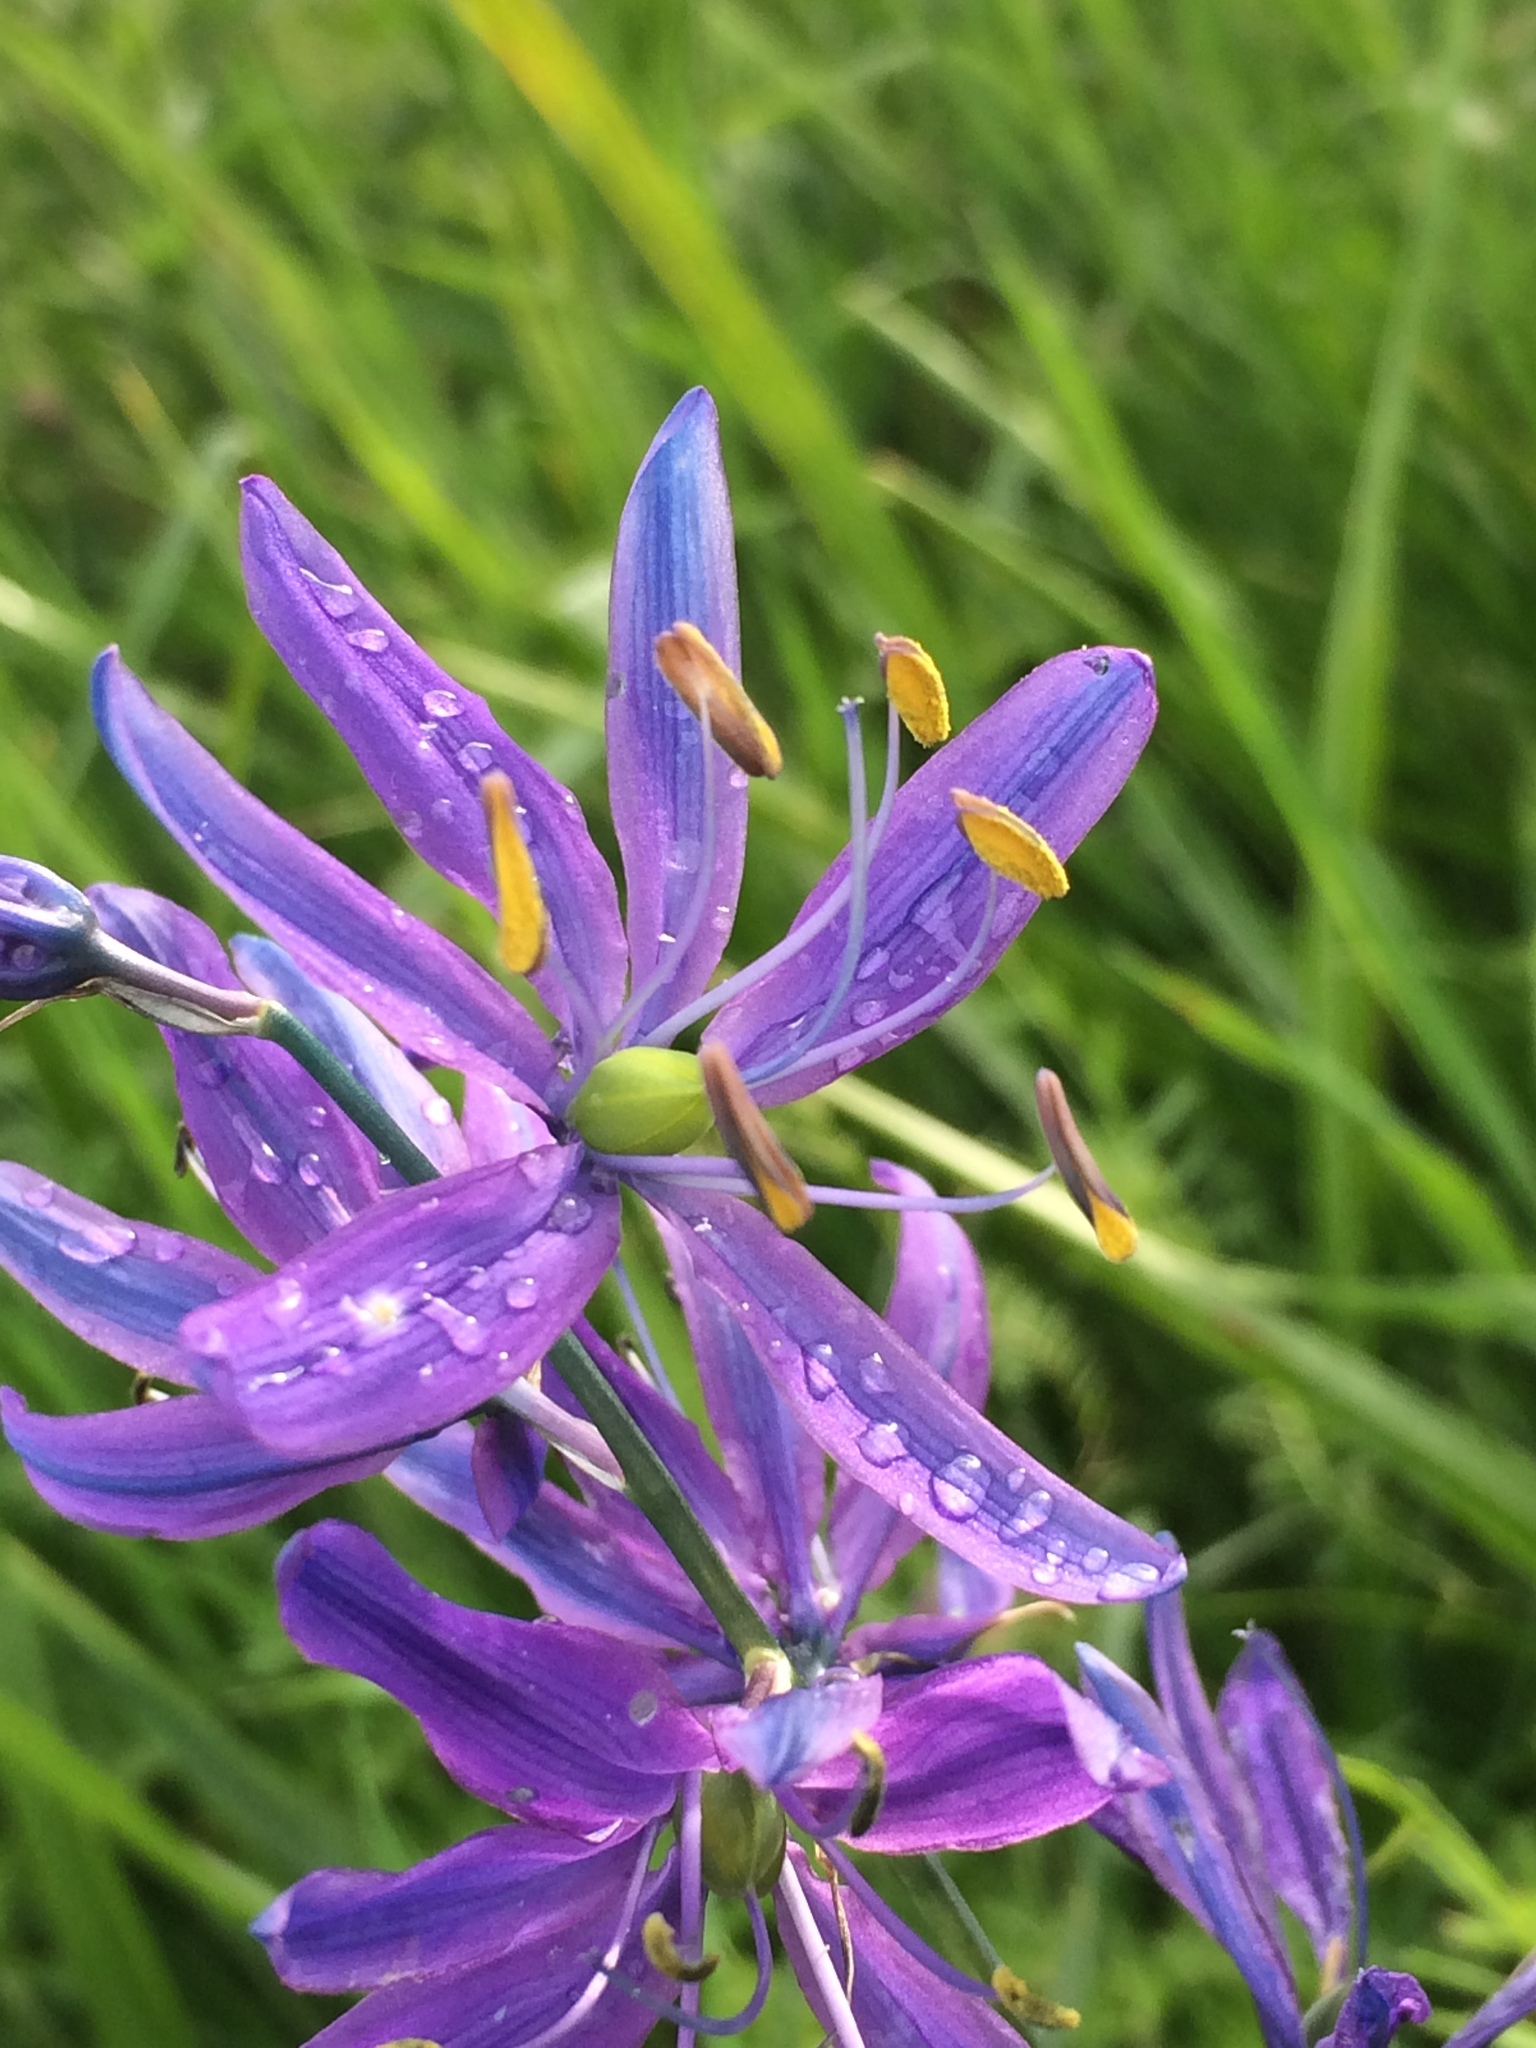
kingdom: Plantae
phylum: Tracheophyta
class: Liliopsida
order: Asparagales
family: Asparagaceae
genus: Camassia
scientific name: Camassia quamash
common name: Common camas
